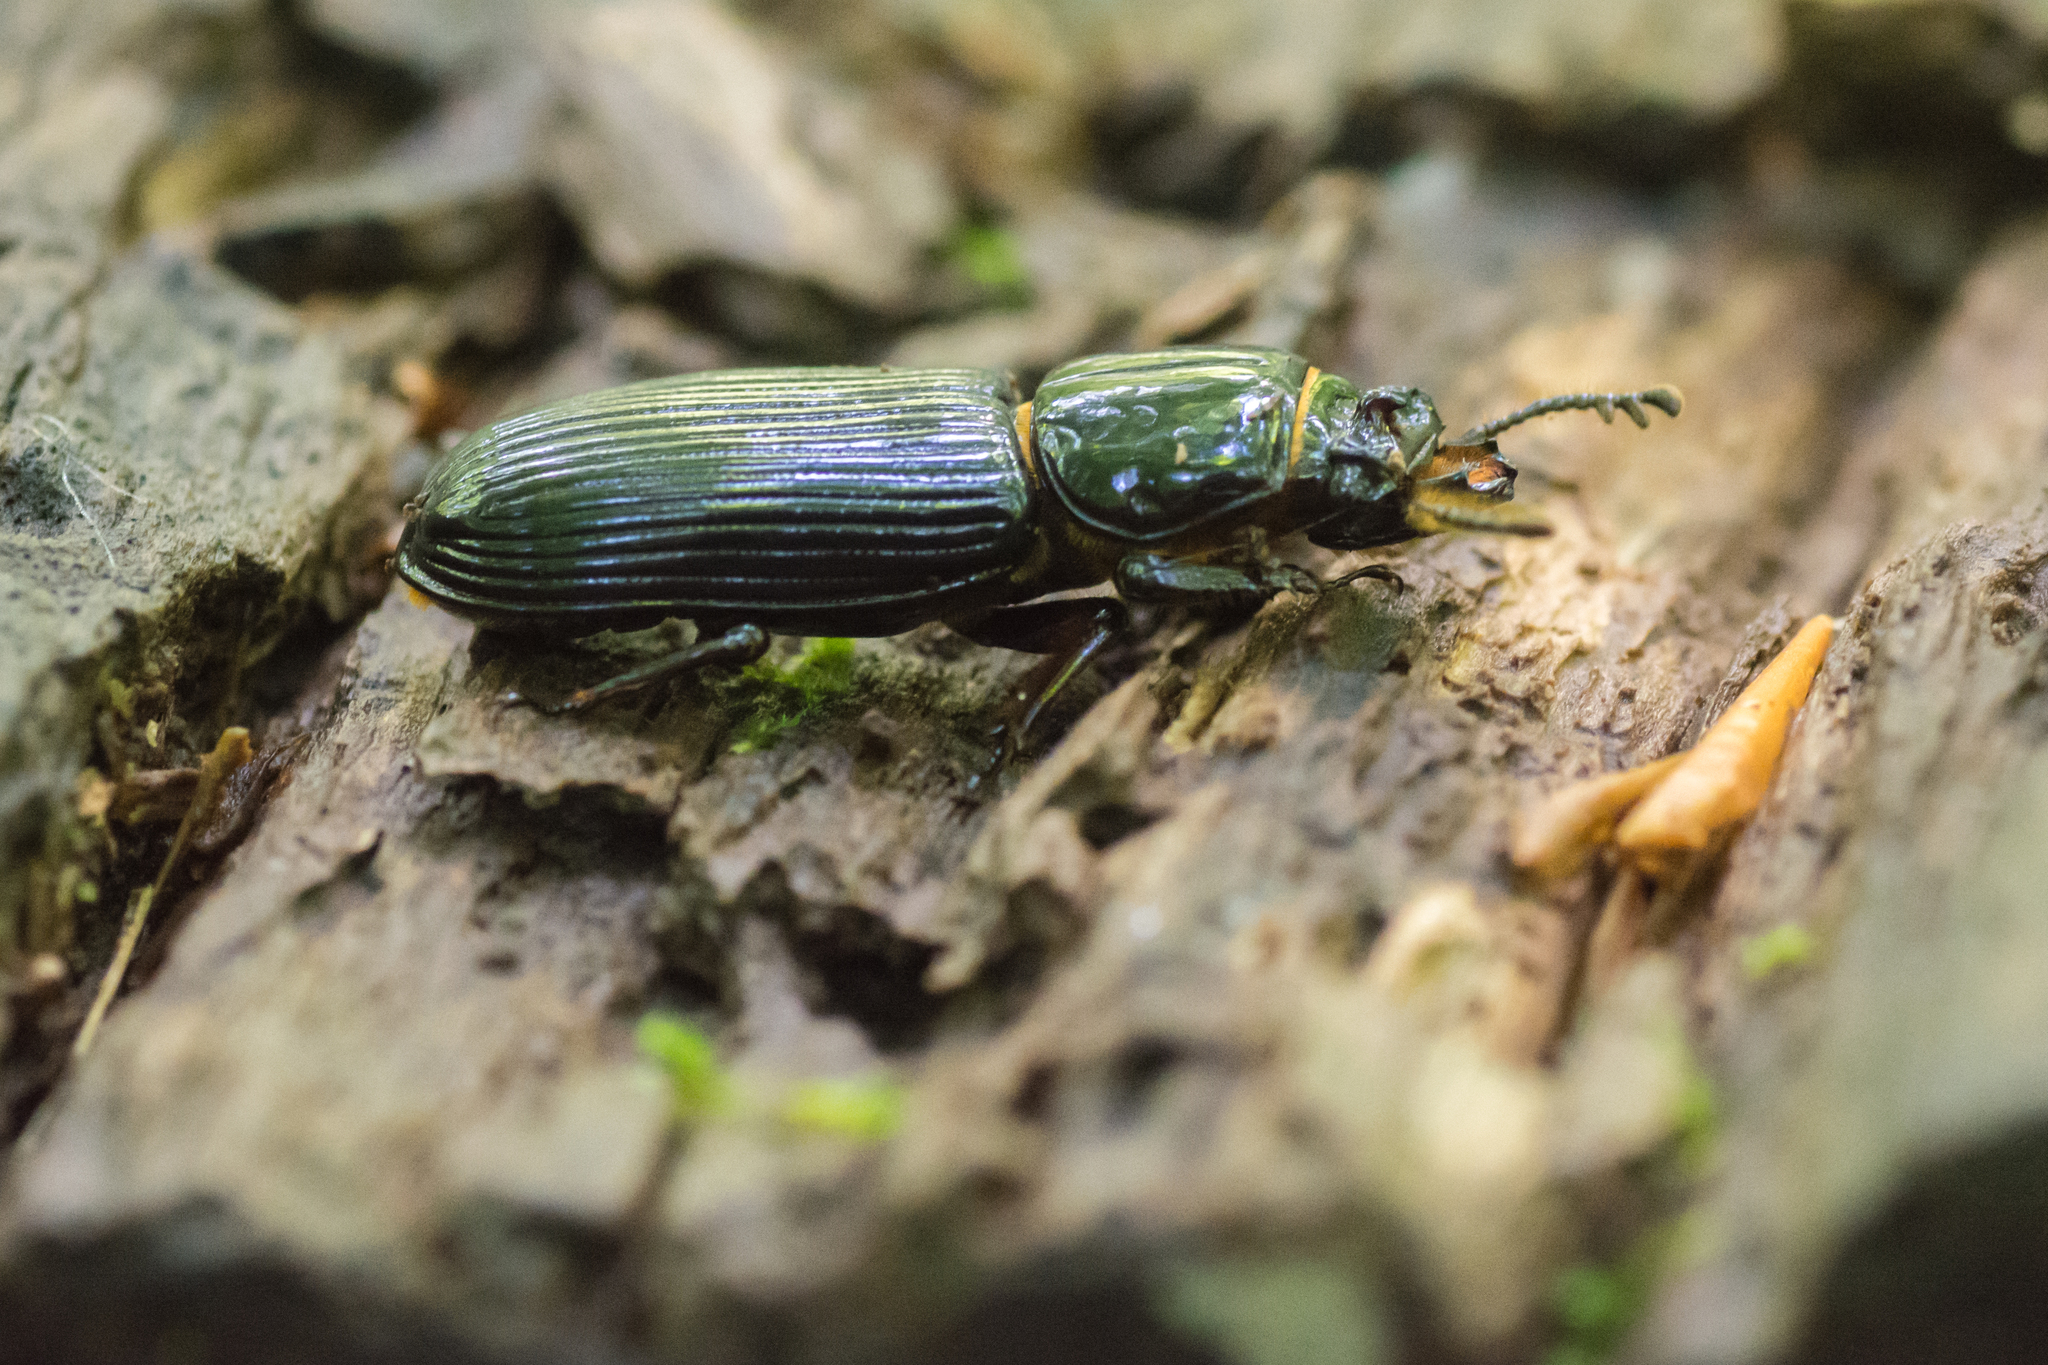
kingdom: Animalia
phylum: Arthropoda
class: Insecta
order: Coleoptera
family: Passalidae
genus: Odontotaenius
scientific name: Odontotaenius disjunctus
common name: Patent leather beetle
